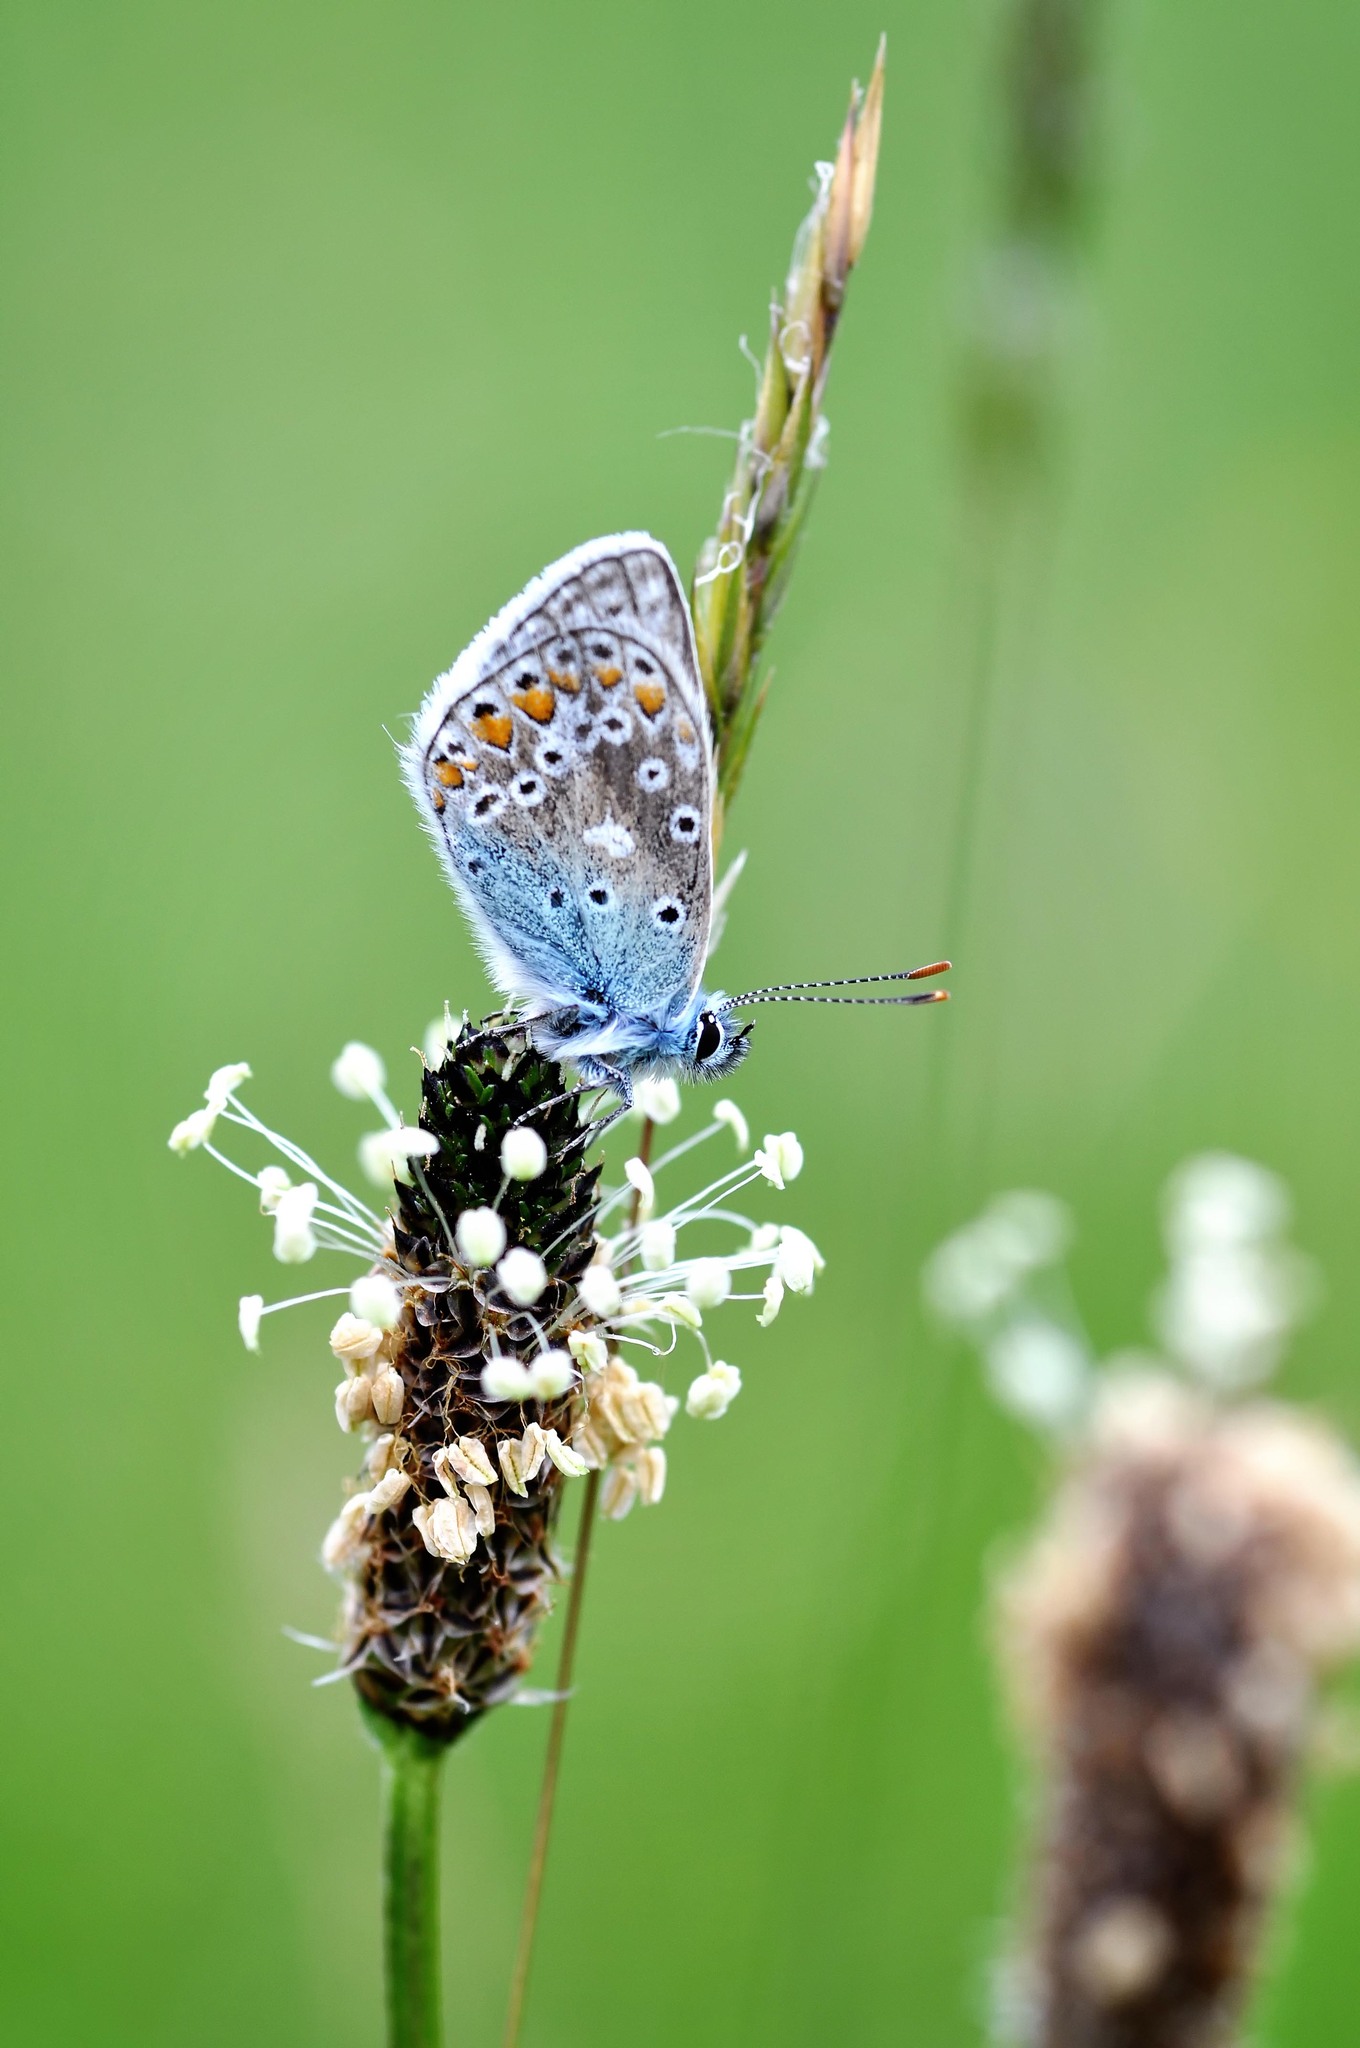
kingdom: Animalia
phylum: Arthropoda
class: Insecta
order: Lepidoptera
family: Lycaenidae
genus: Polyommatus
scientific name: Polyommatus icarus
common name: Common blue
